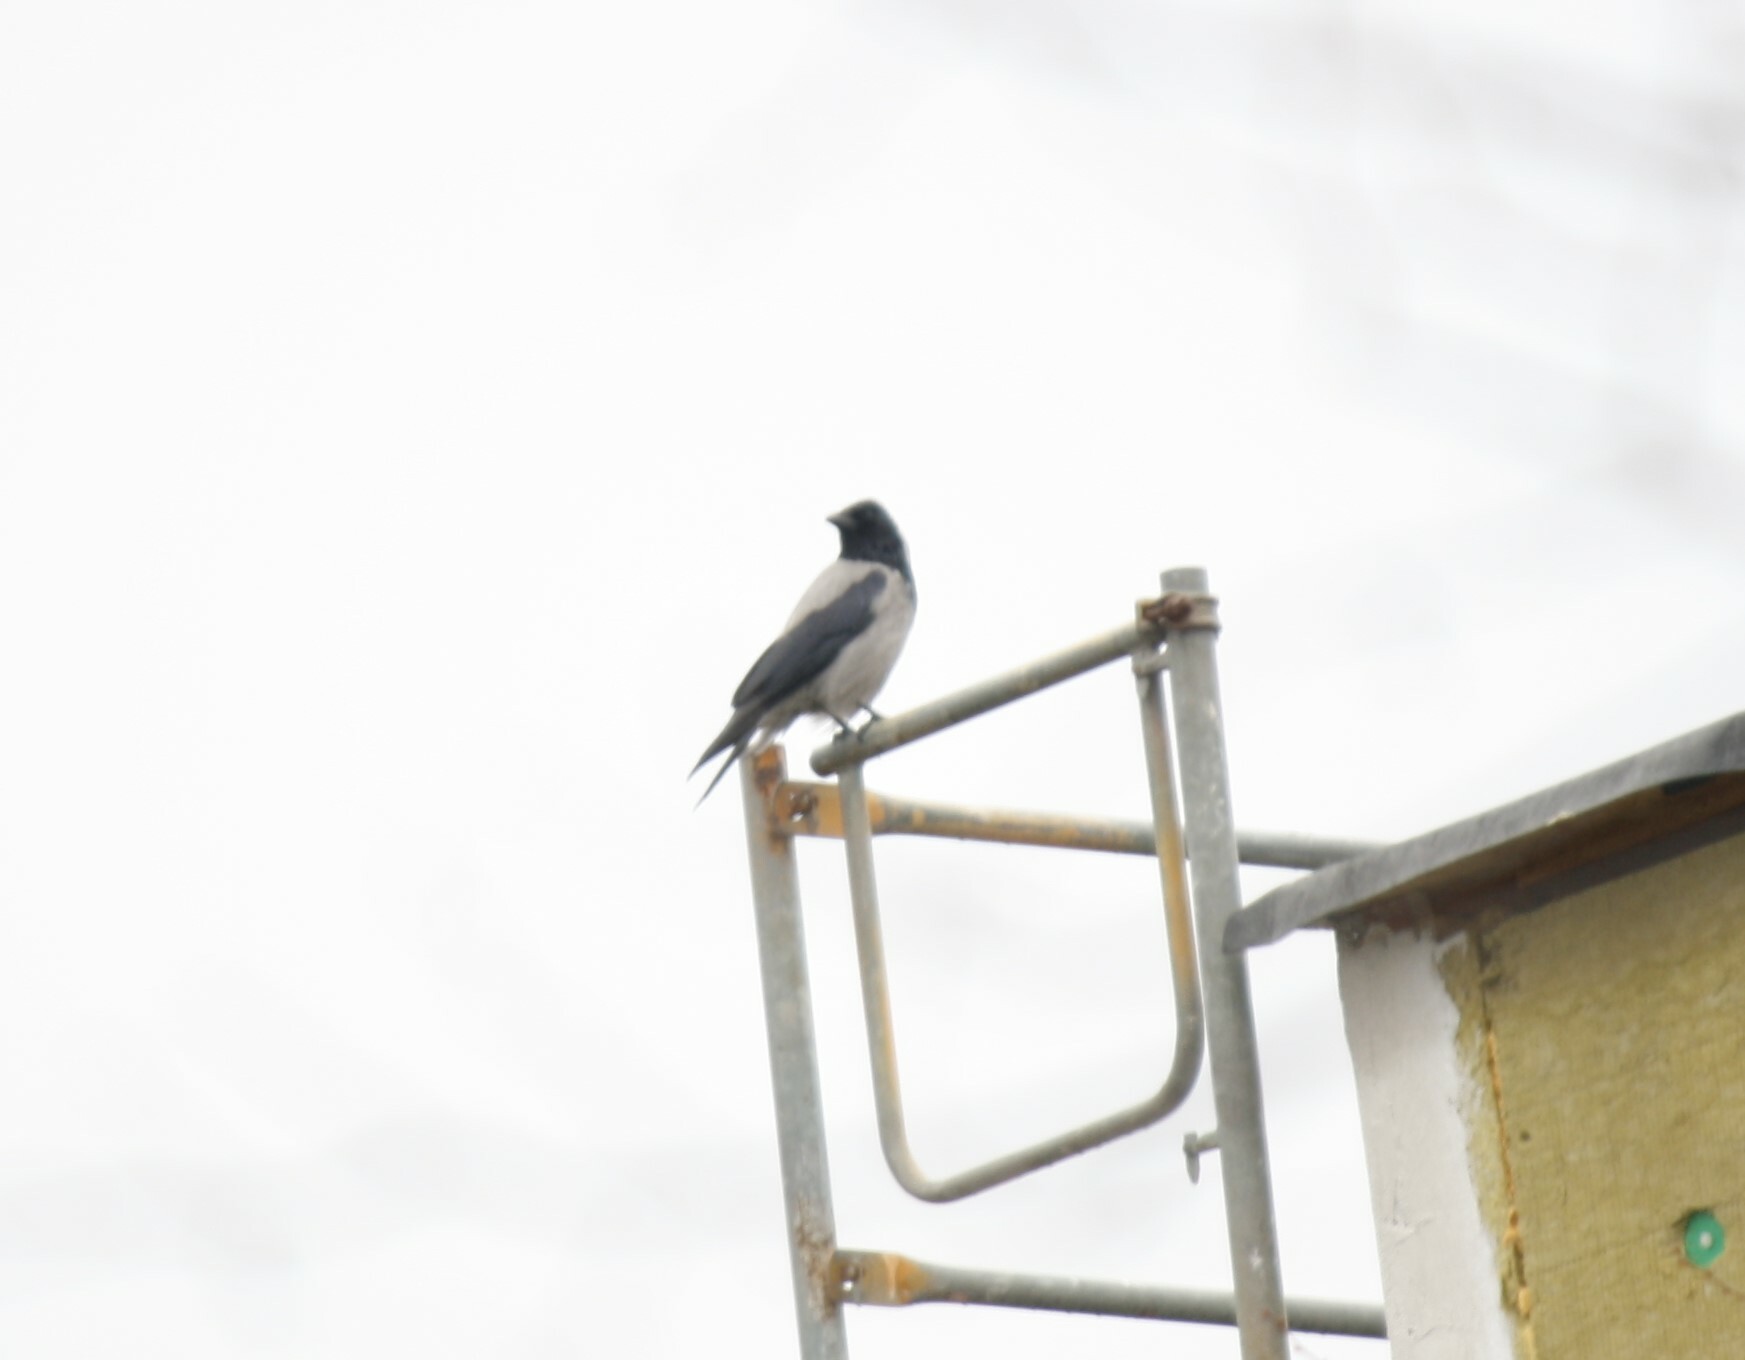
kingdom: Animalia
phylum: Chordata
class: Aves
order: Passeriformes
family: Corvidae
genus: Corvus
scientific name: Corvus cornix
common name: Hooded crow
